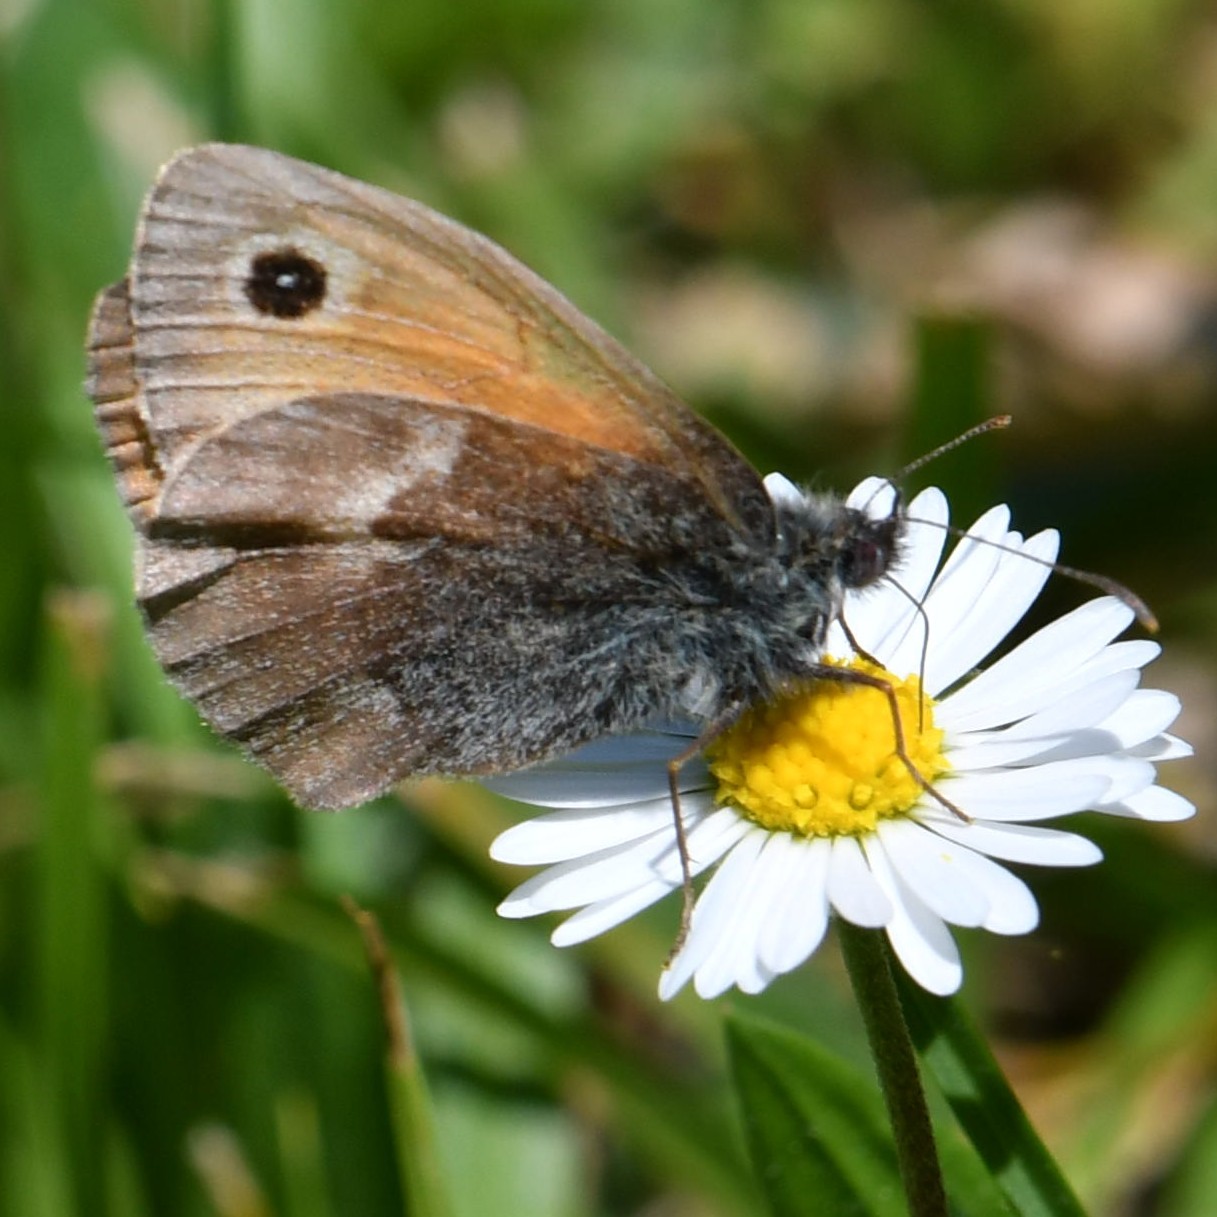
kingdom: Animalia
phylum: Arthropoda
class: Insecta
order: Lepidoptera
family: Nymphalidae
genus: Coenonympha
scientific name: Coenonympha pamphilus
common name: Small heath
